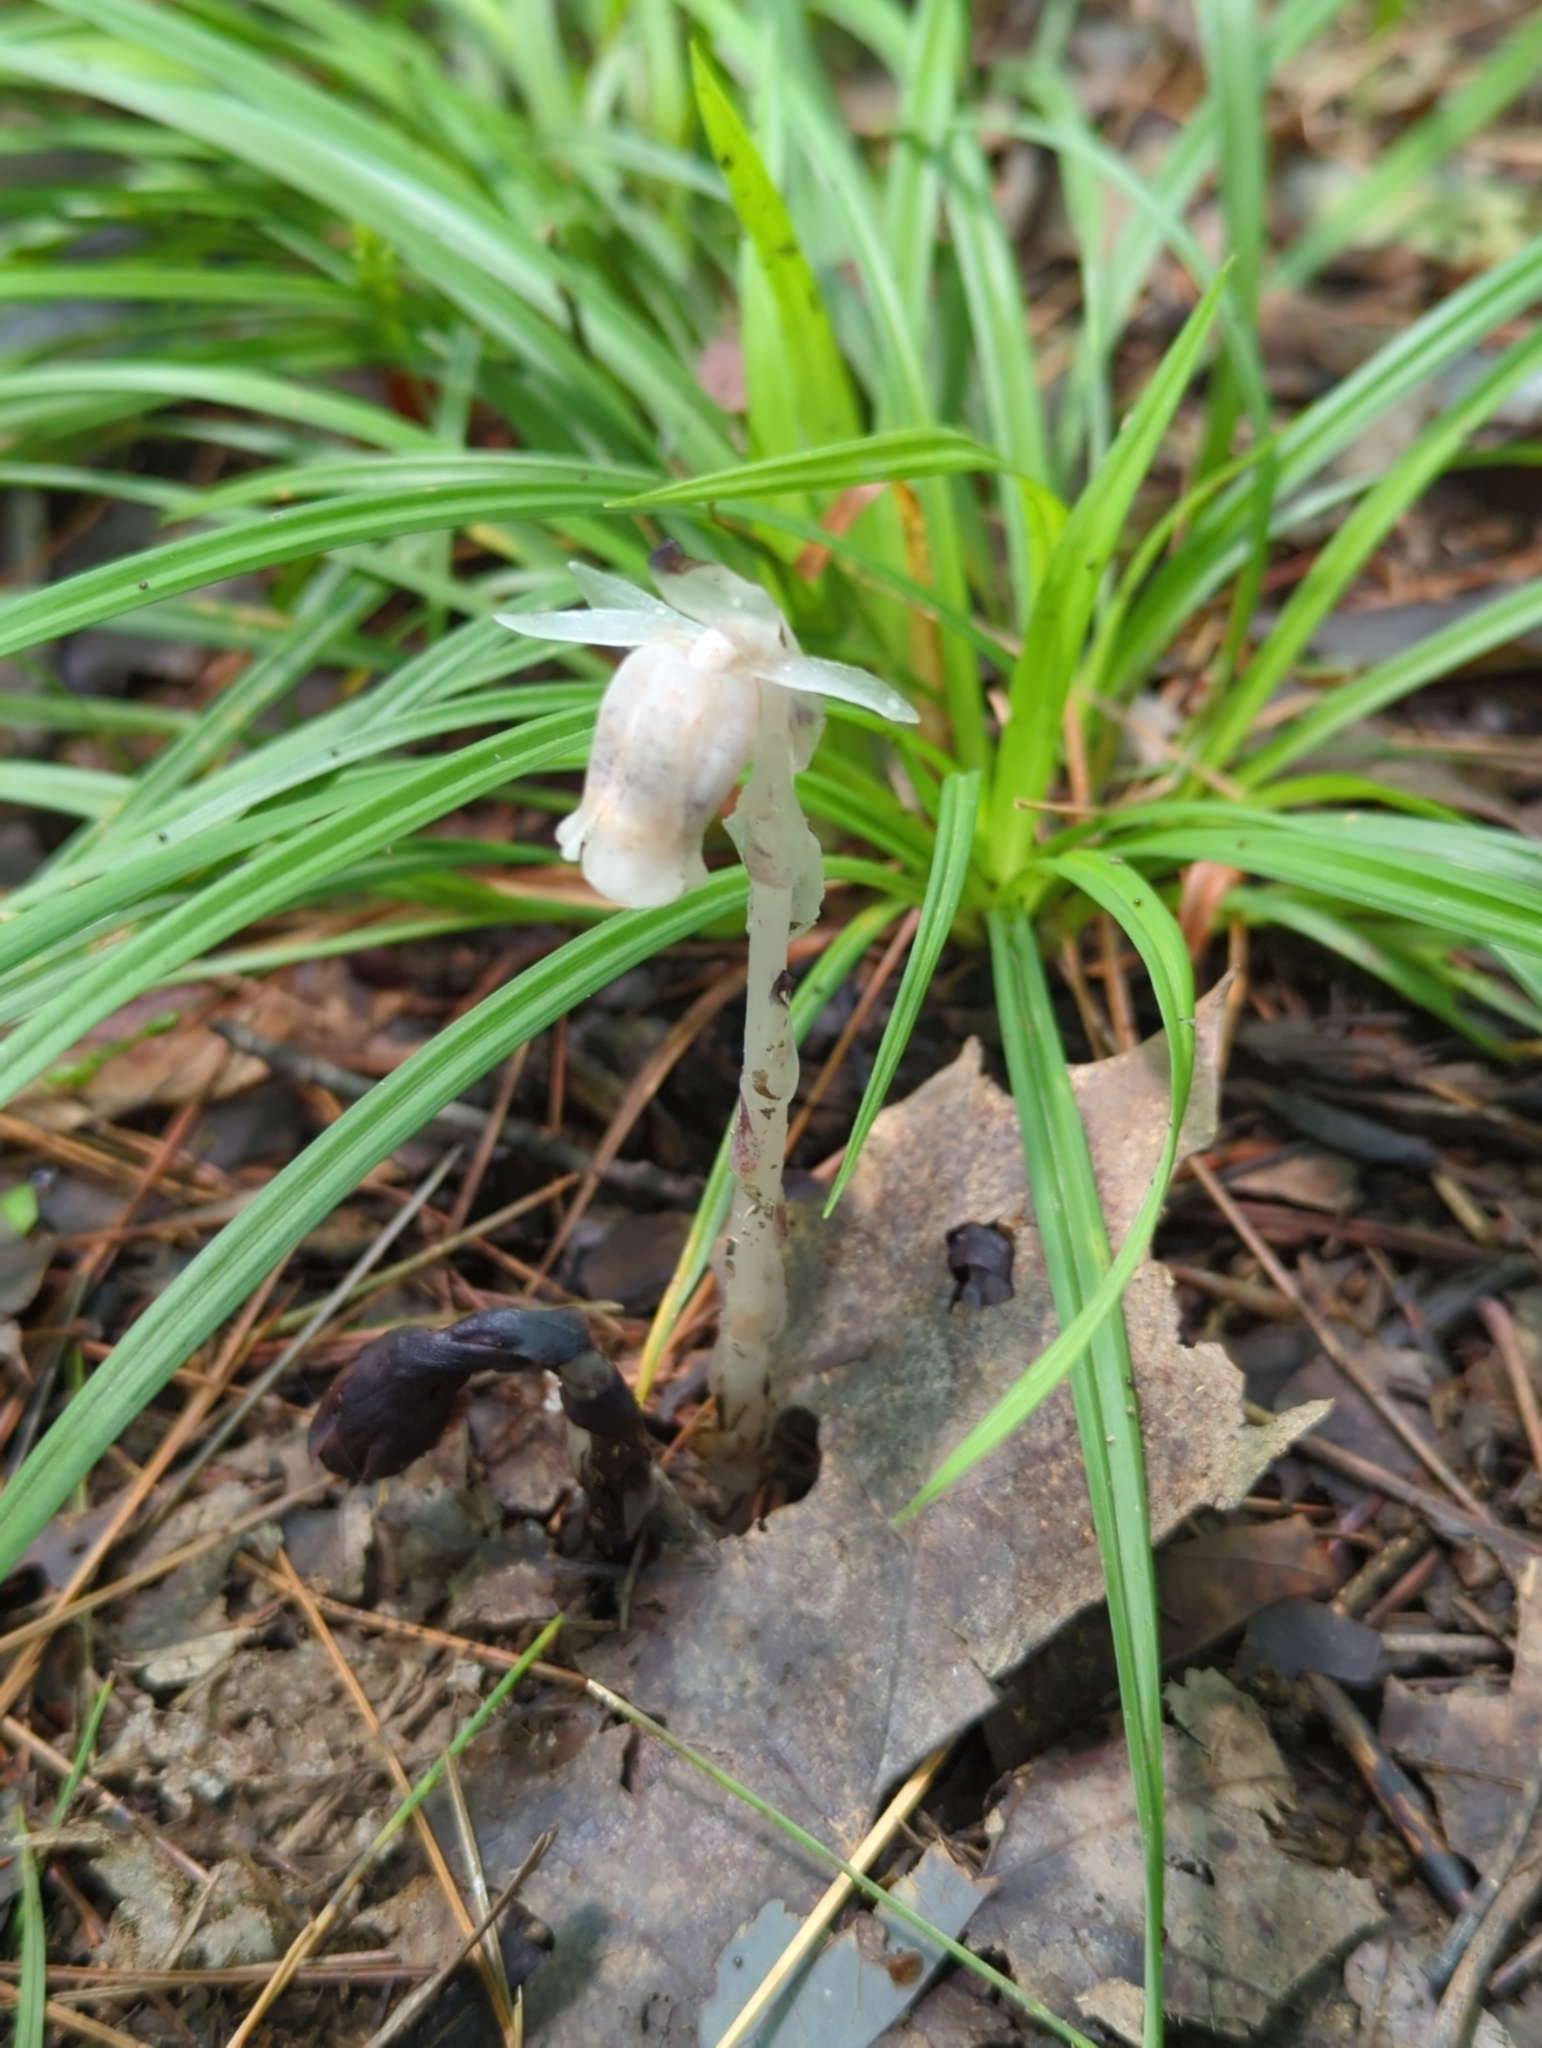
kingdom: Plantae
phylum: Tracheophyta
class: Magnoliopsida
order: Ericales
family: Ericaceae
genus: Monotropa
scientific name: Monotropa uniflora
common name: Convulsion root
